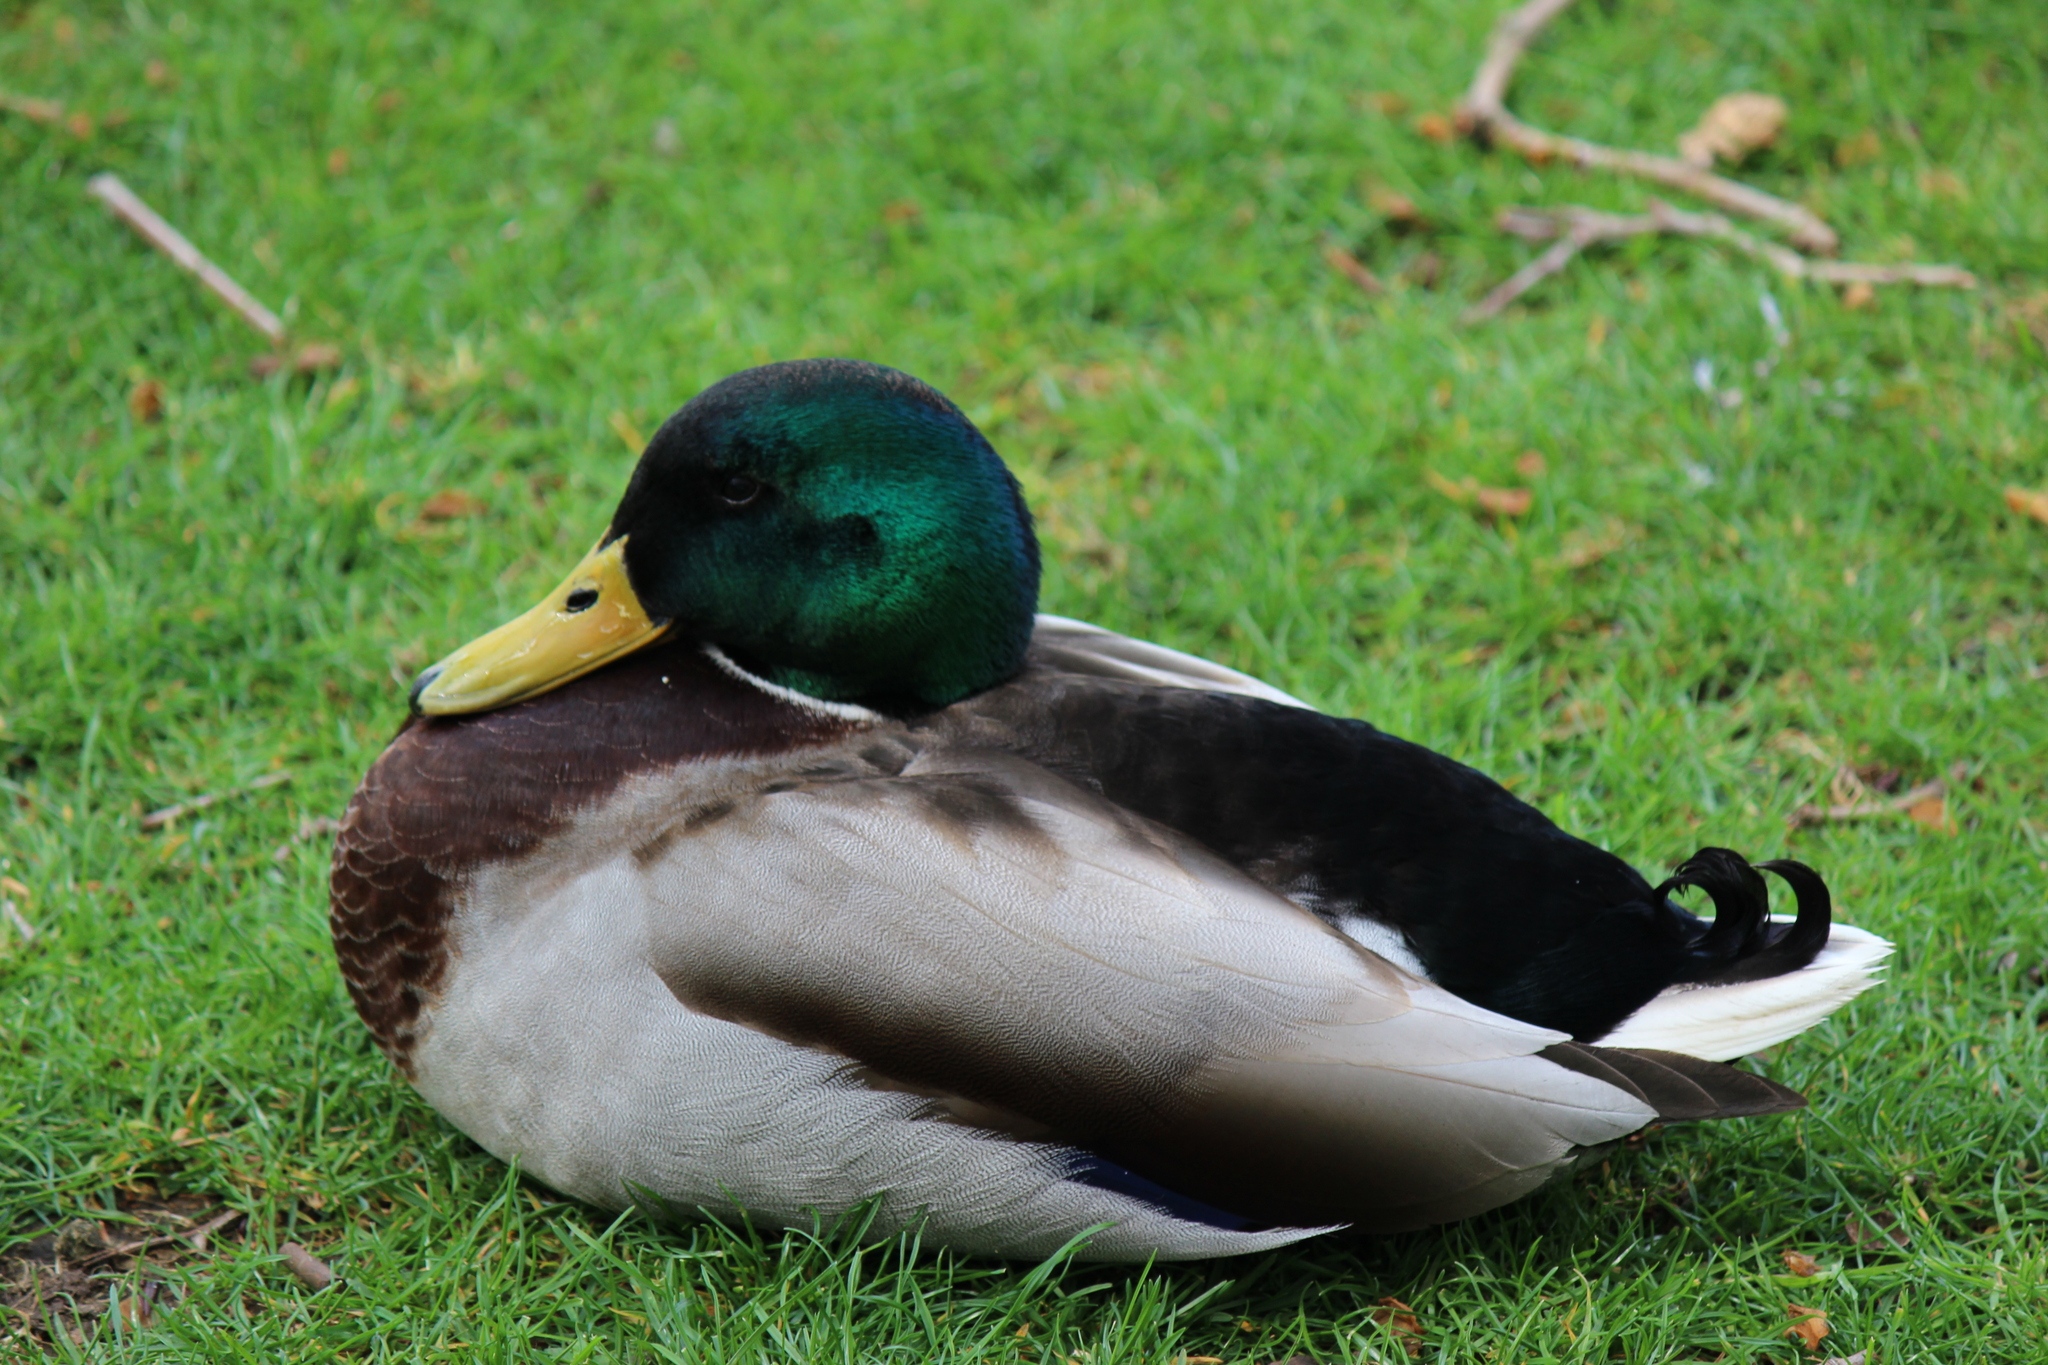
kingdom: Animalia
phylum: Chordata
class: Aves
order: Anseriformes
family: Anatidae
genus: Anas
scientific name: Anas platyrhynchos
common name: Mallard
